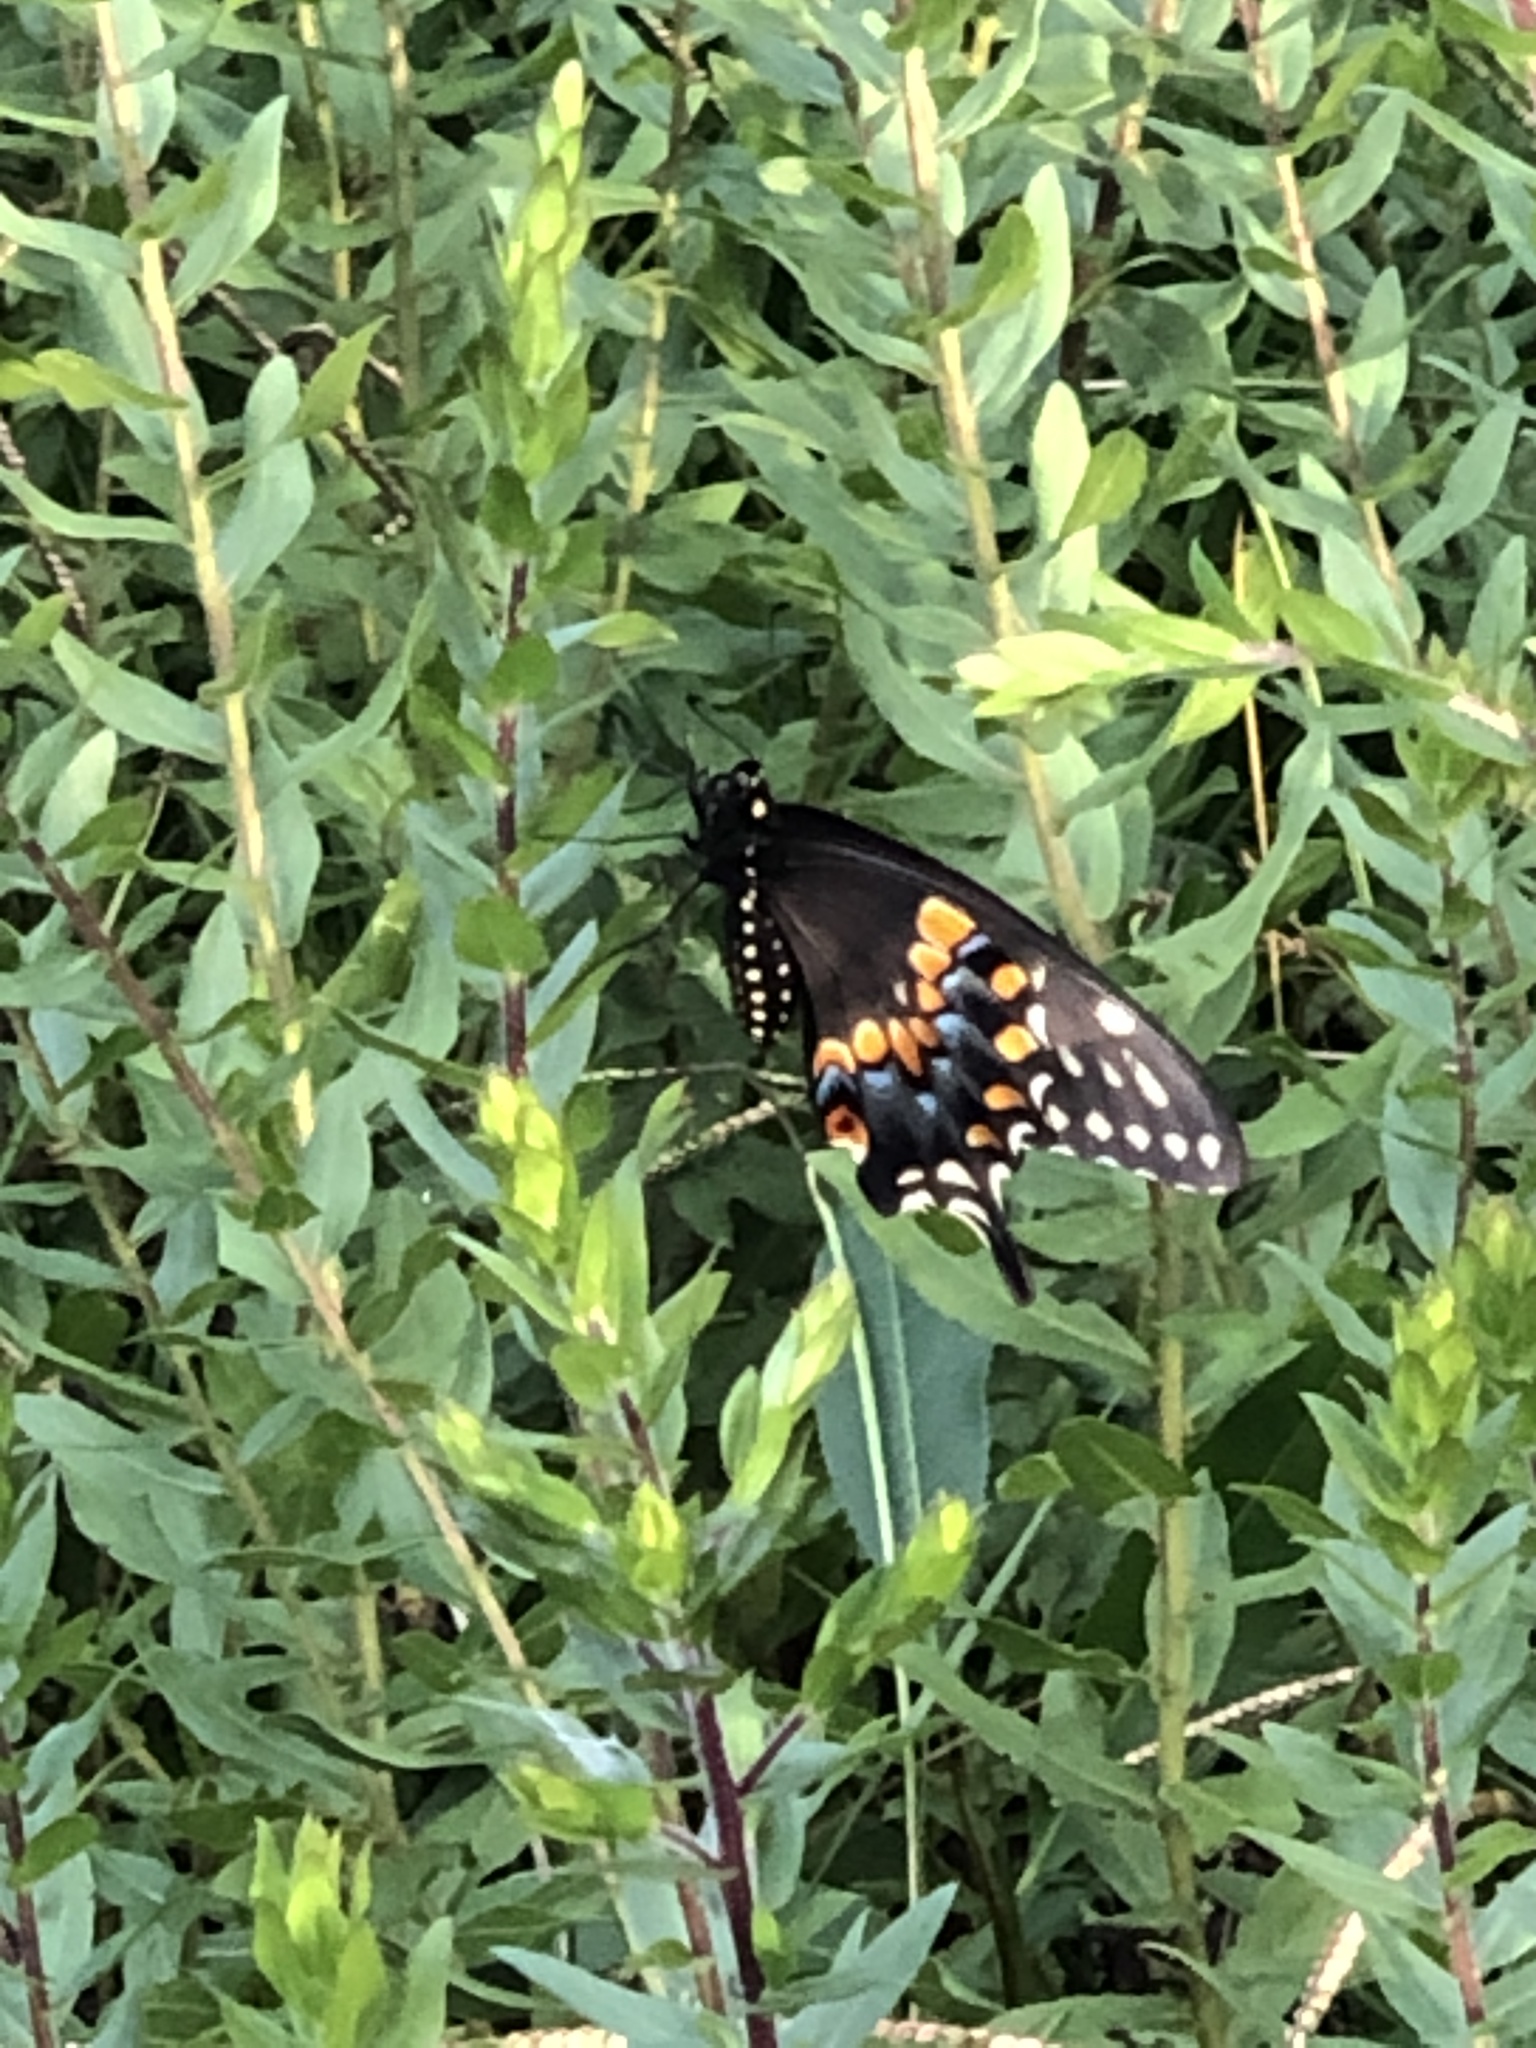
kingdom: Animalia
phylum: Arthropoda
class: Insecta
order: Lepidoptera
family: Papilionidae
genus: Papilio
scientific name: Papilio polyxenes
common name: Black swallowtail
